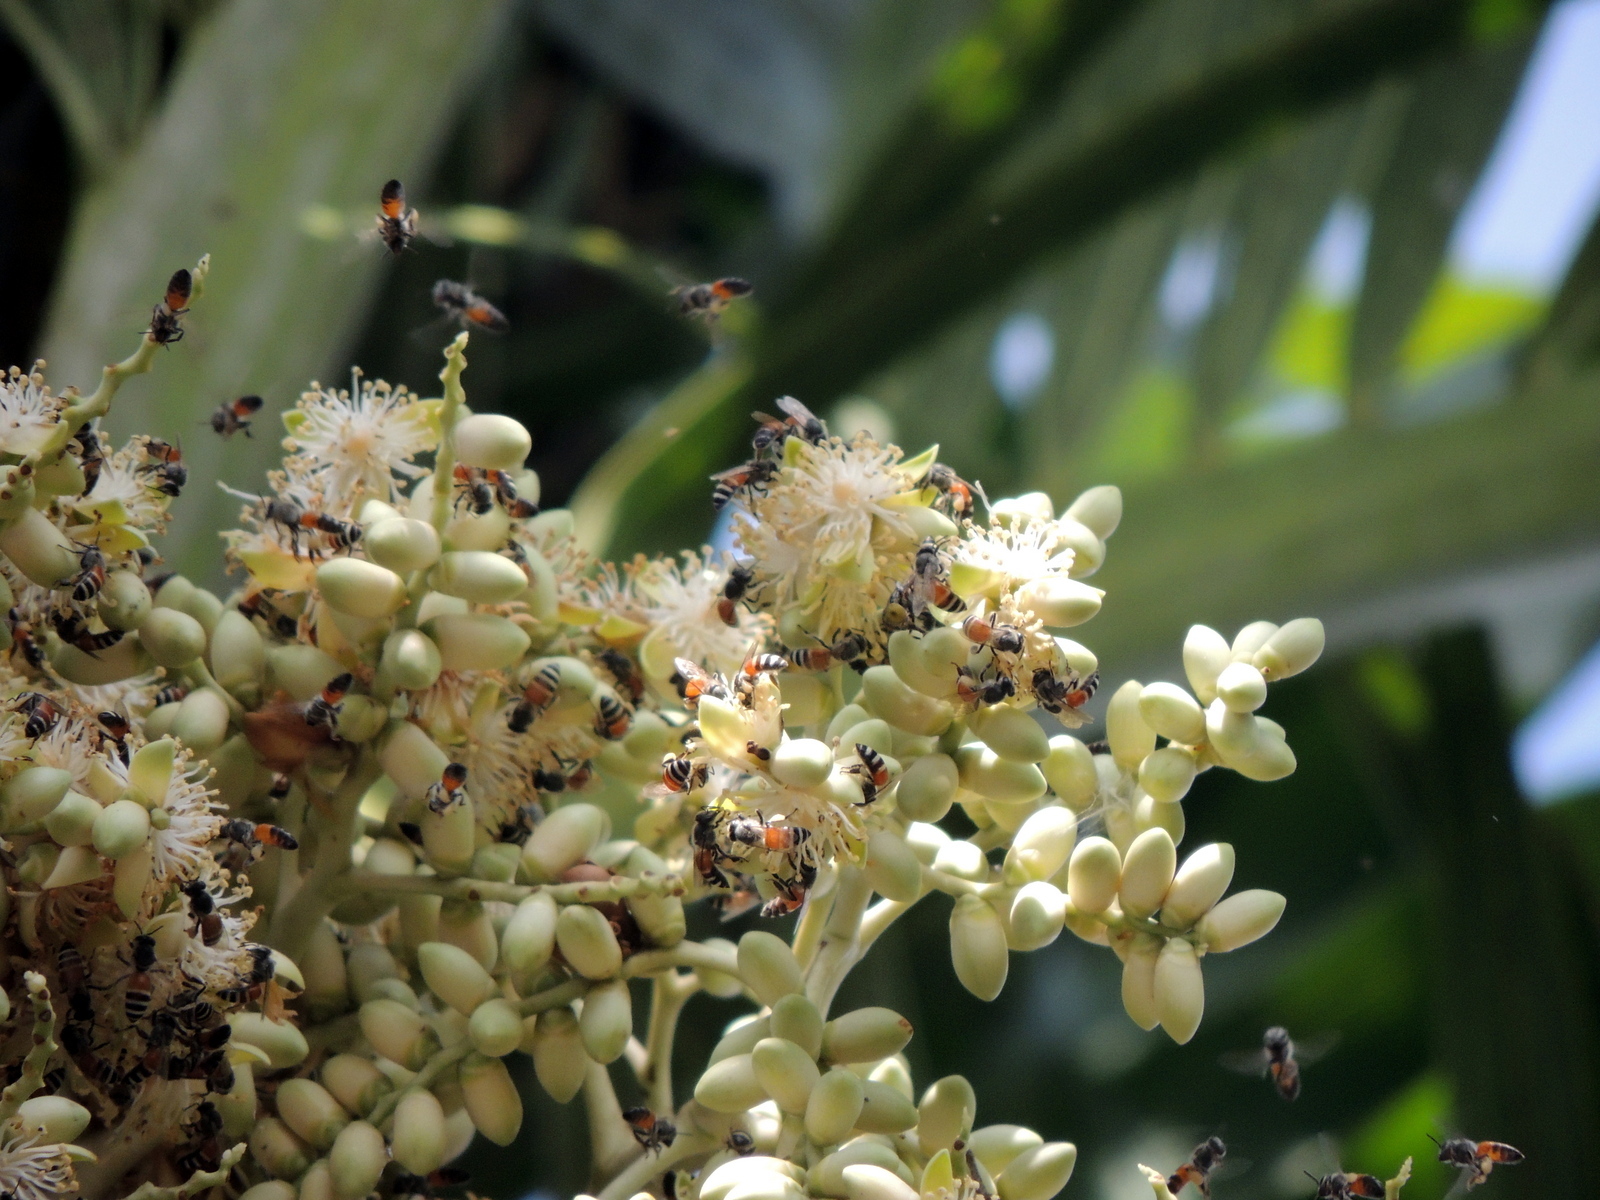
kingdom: Animalia
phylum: Arthropoda
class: Insecta
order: Hymenoptera
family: Apidae
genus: Apis
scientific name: Apis florea
